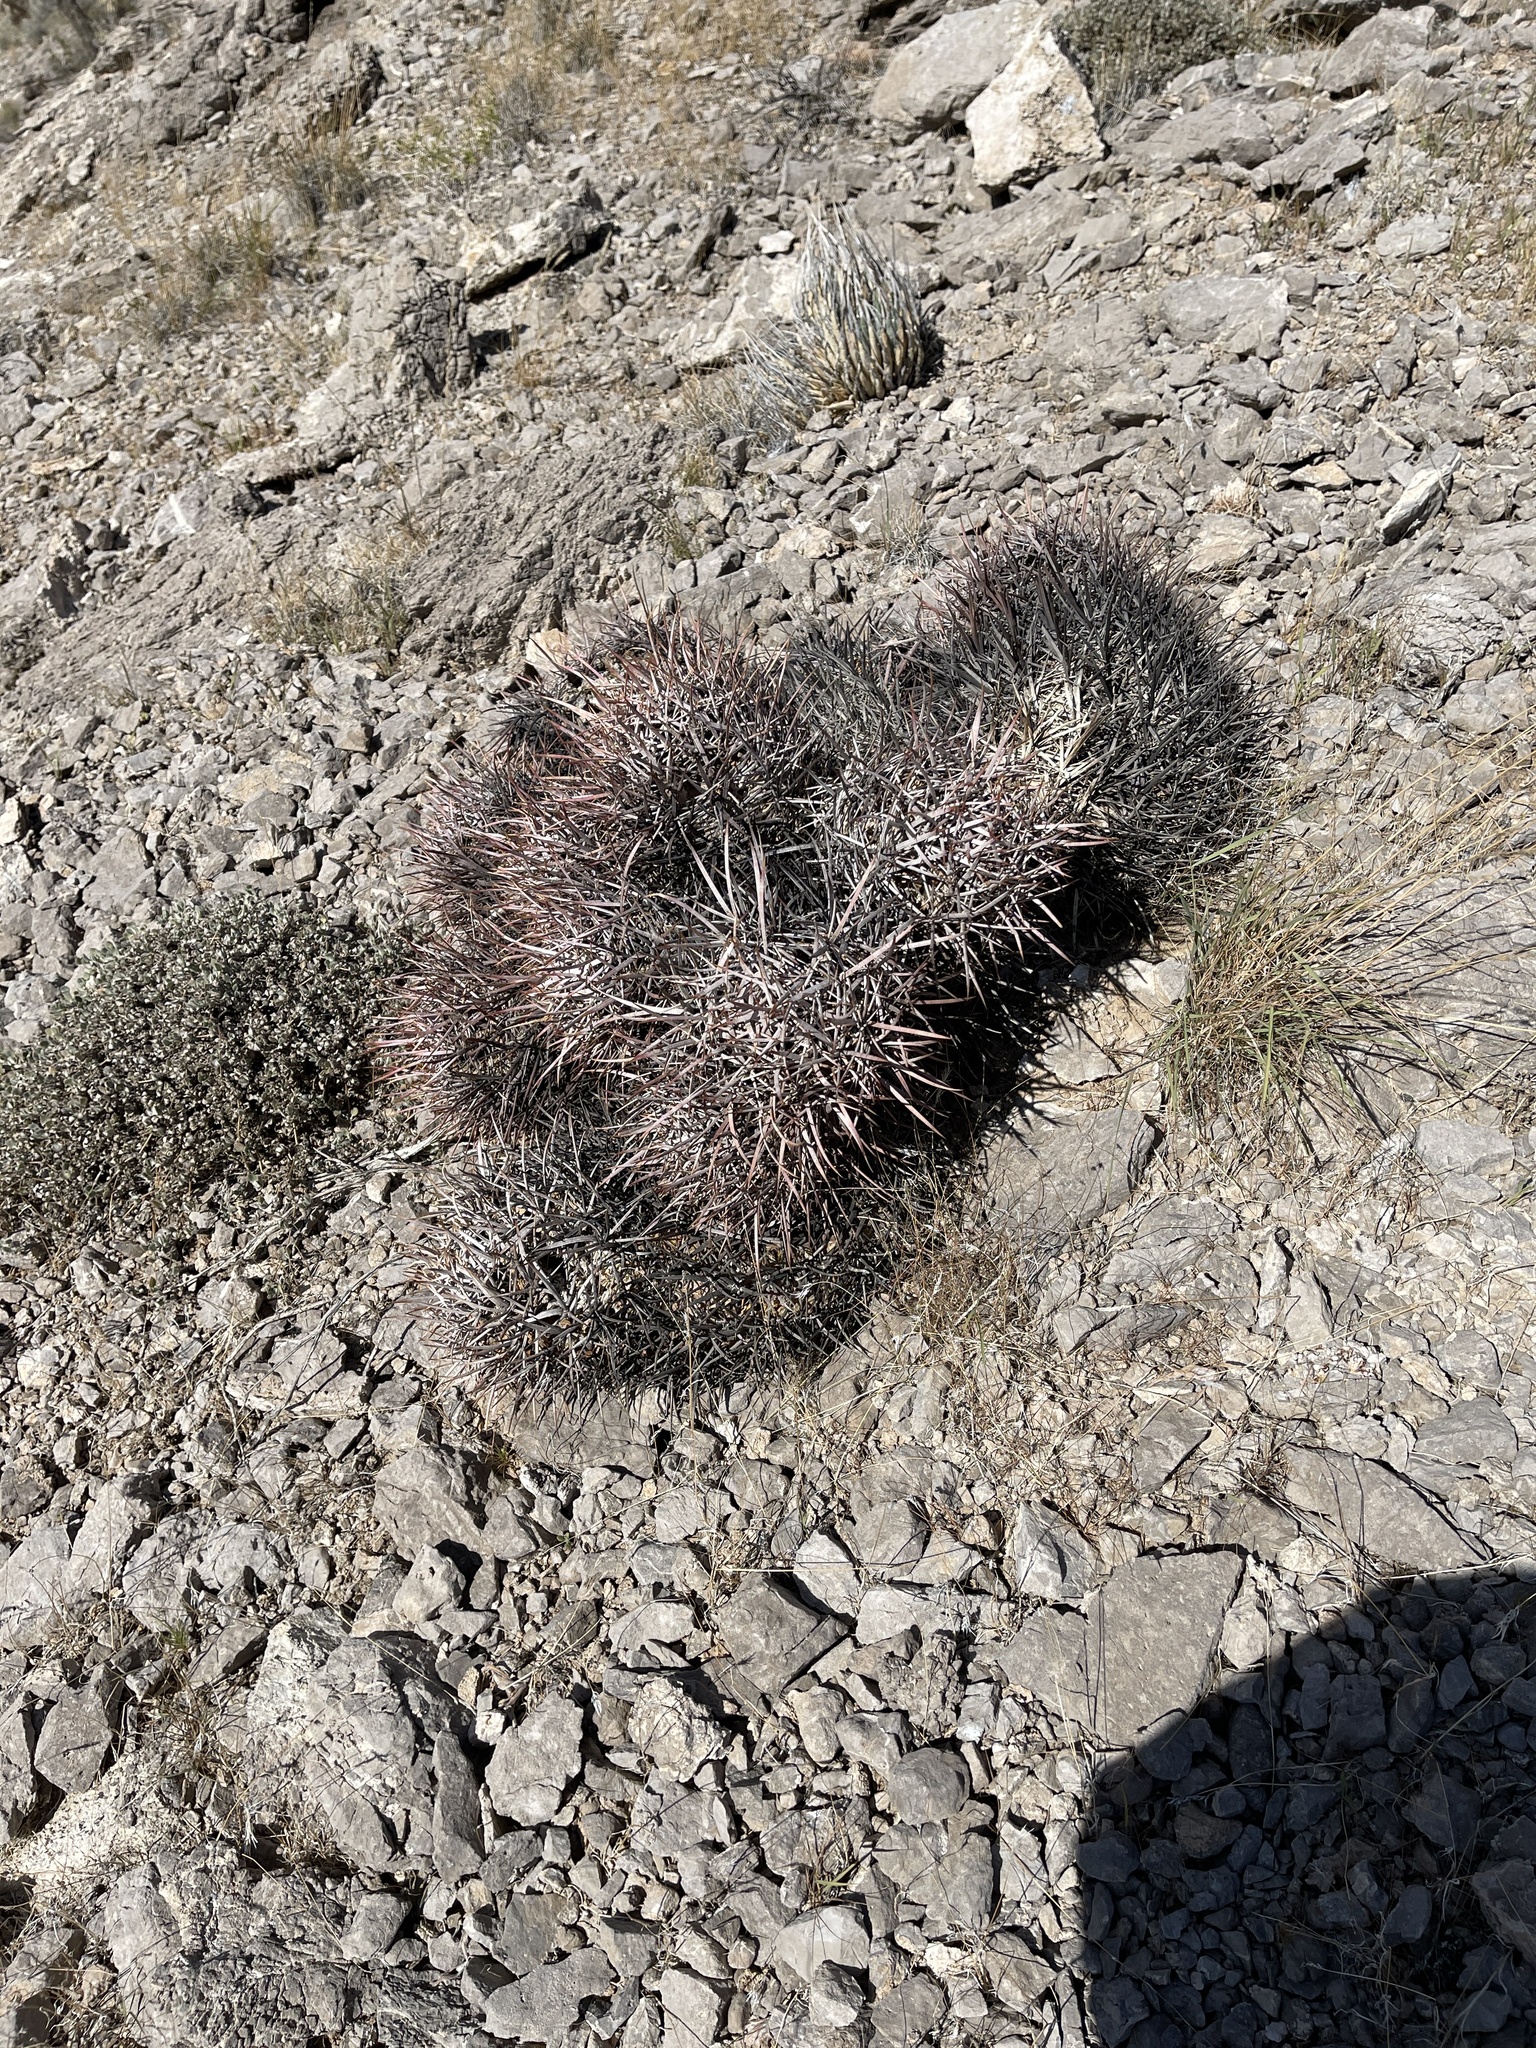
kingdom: Plantae
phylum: Tracheophyta
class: Magnoliopsida
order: Caryophyllales
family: Cactaceae
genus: Echinocactus
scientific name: Echinocactus polycephalus
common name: Cottontop cactus
